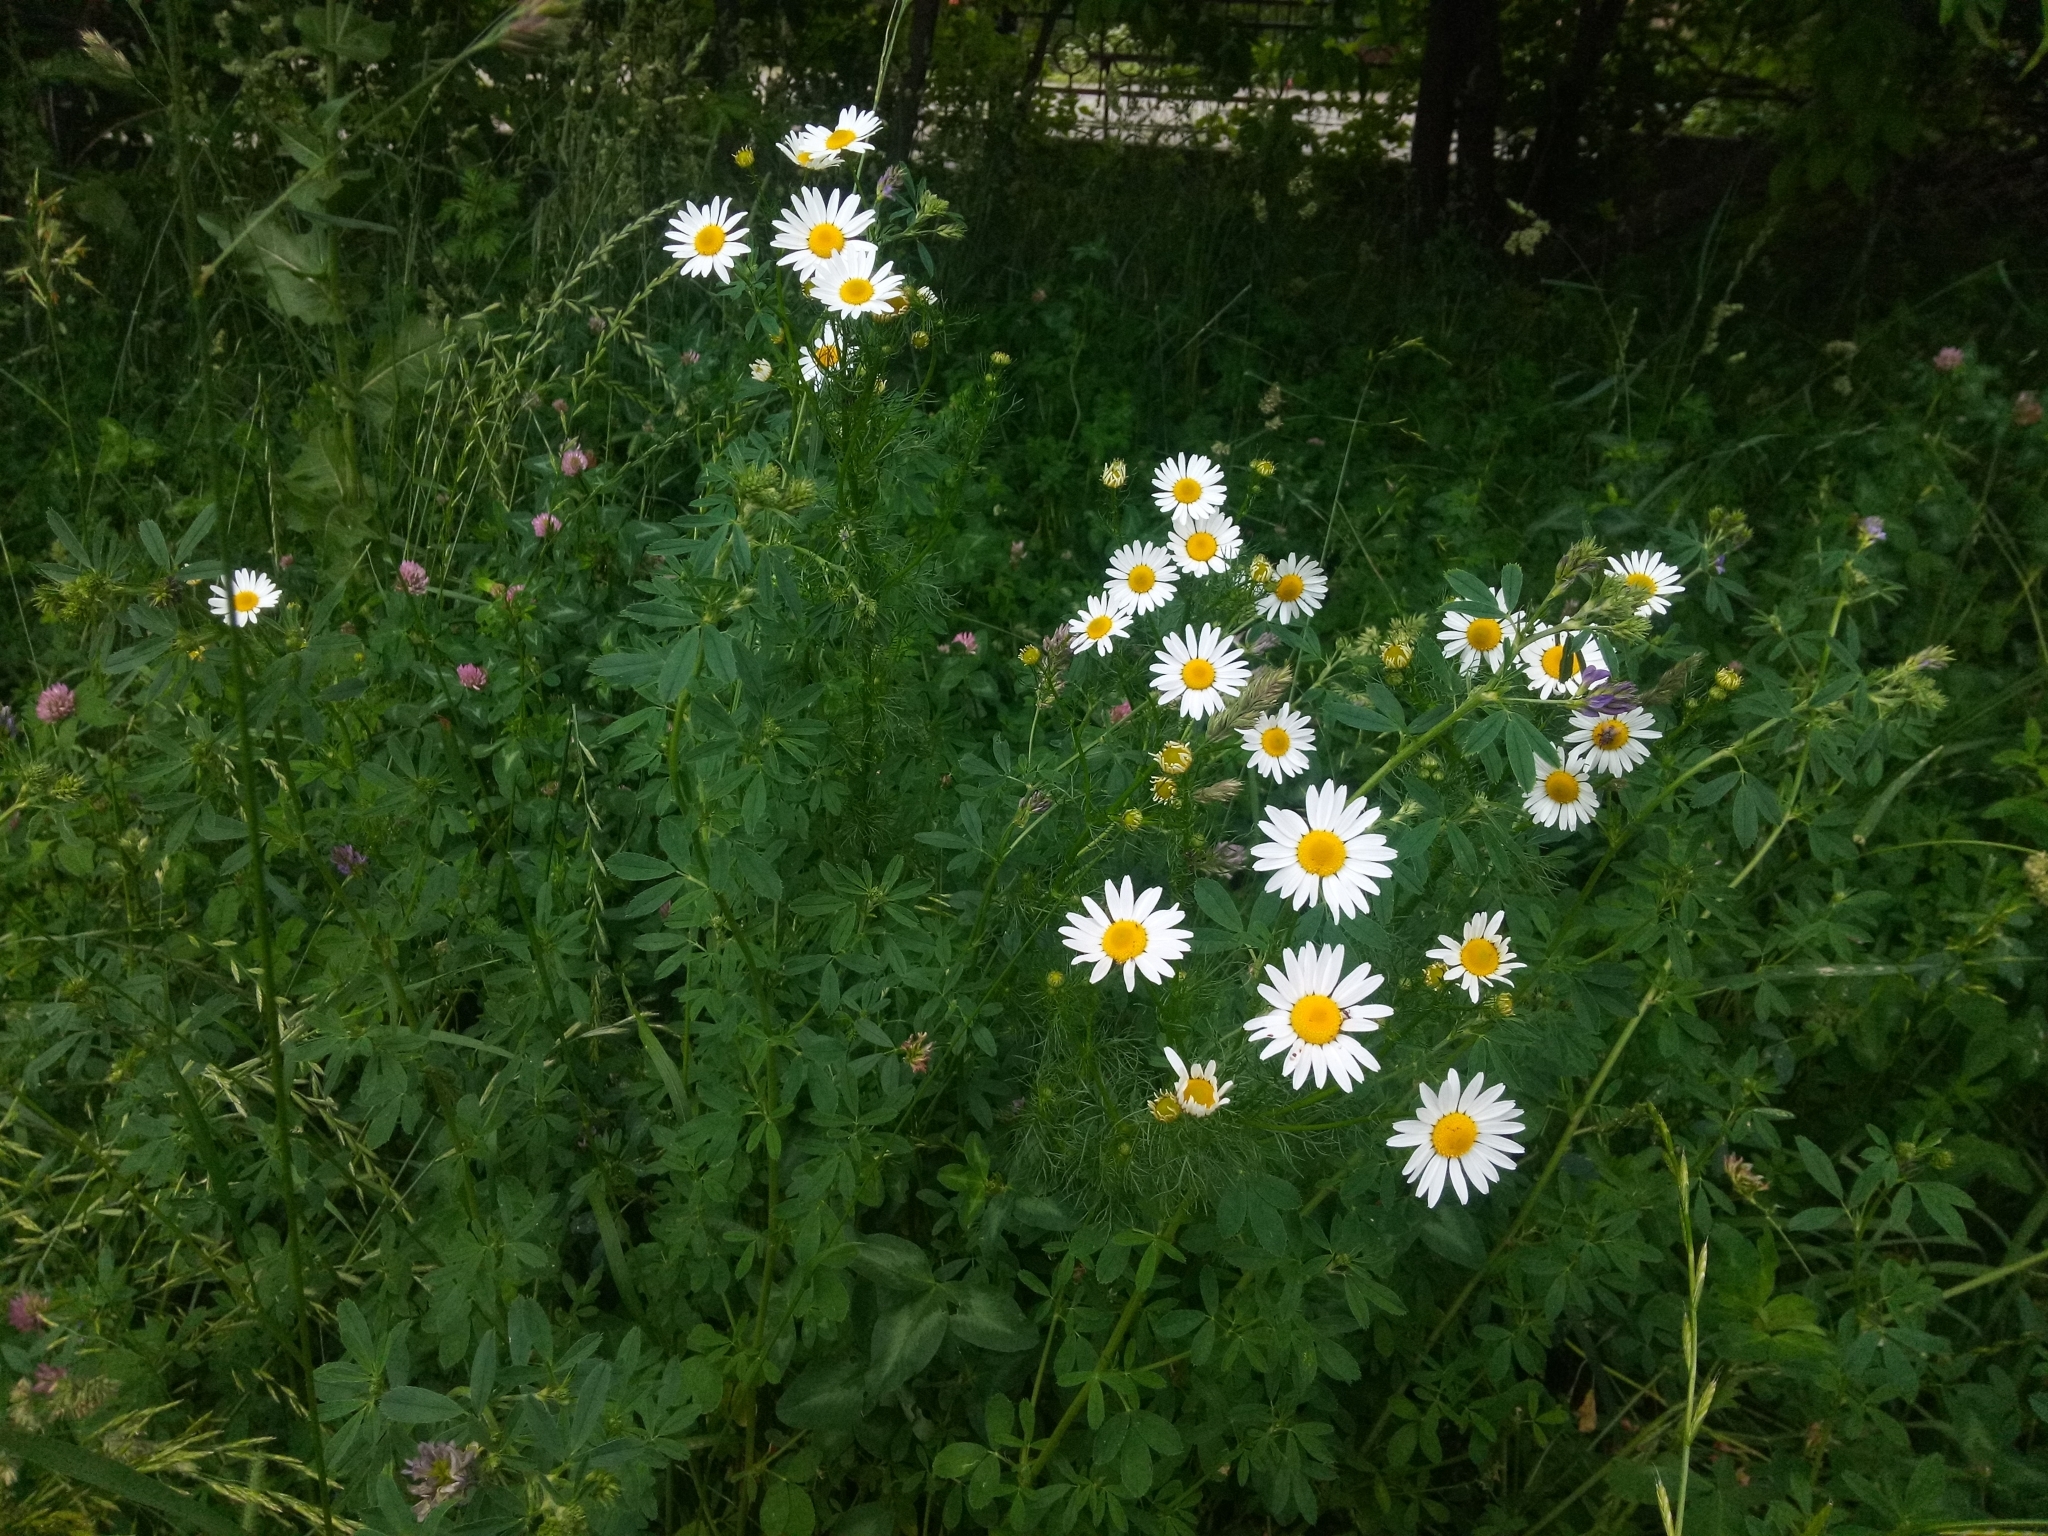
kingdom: Plantae
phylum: Tracheophyta
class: Magnoliopsida
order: Asterales
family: Asteraceae
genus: Tripleurospermum
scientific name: Tripleurospermum inodorum
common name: Scentless mayweed
